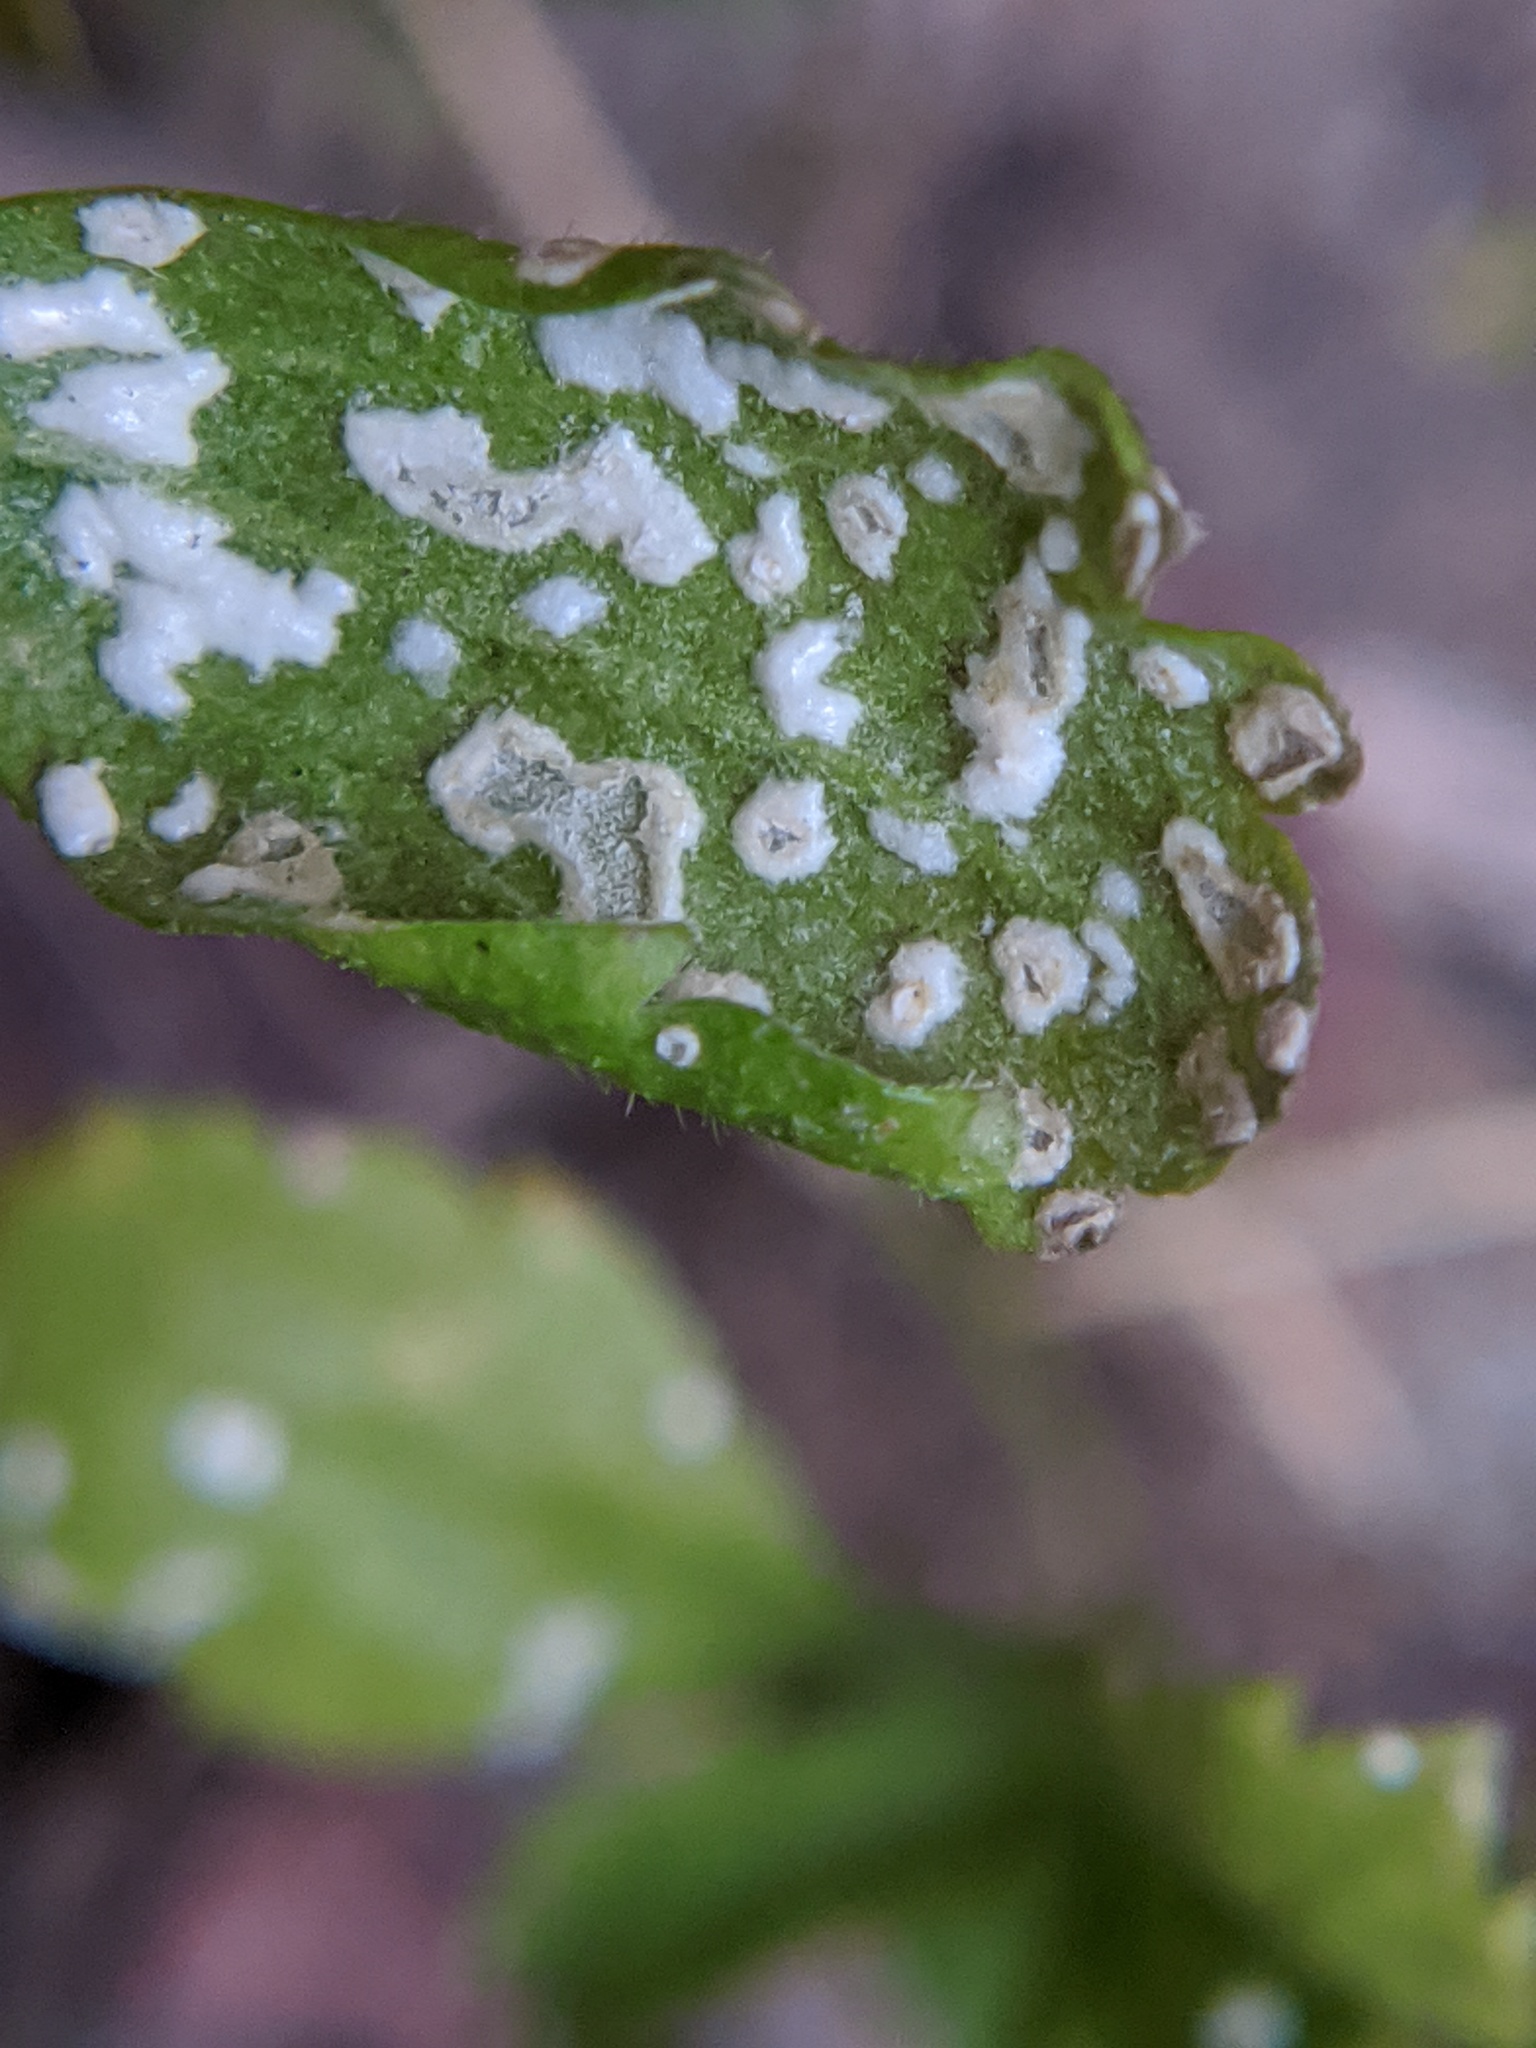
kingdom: Chromista
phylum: Oomycota
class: Peronosporea
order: Albuginales
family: Albuginaceae
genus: Albugo
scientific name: Albugo candida
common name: Crucifer white blister
